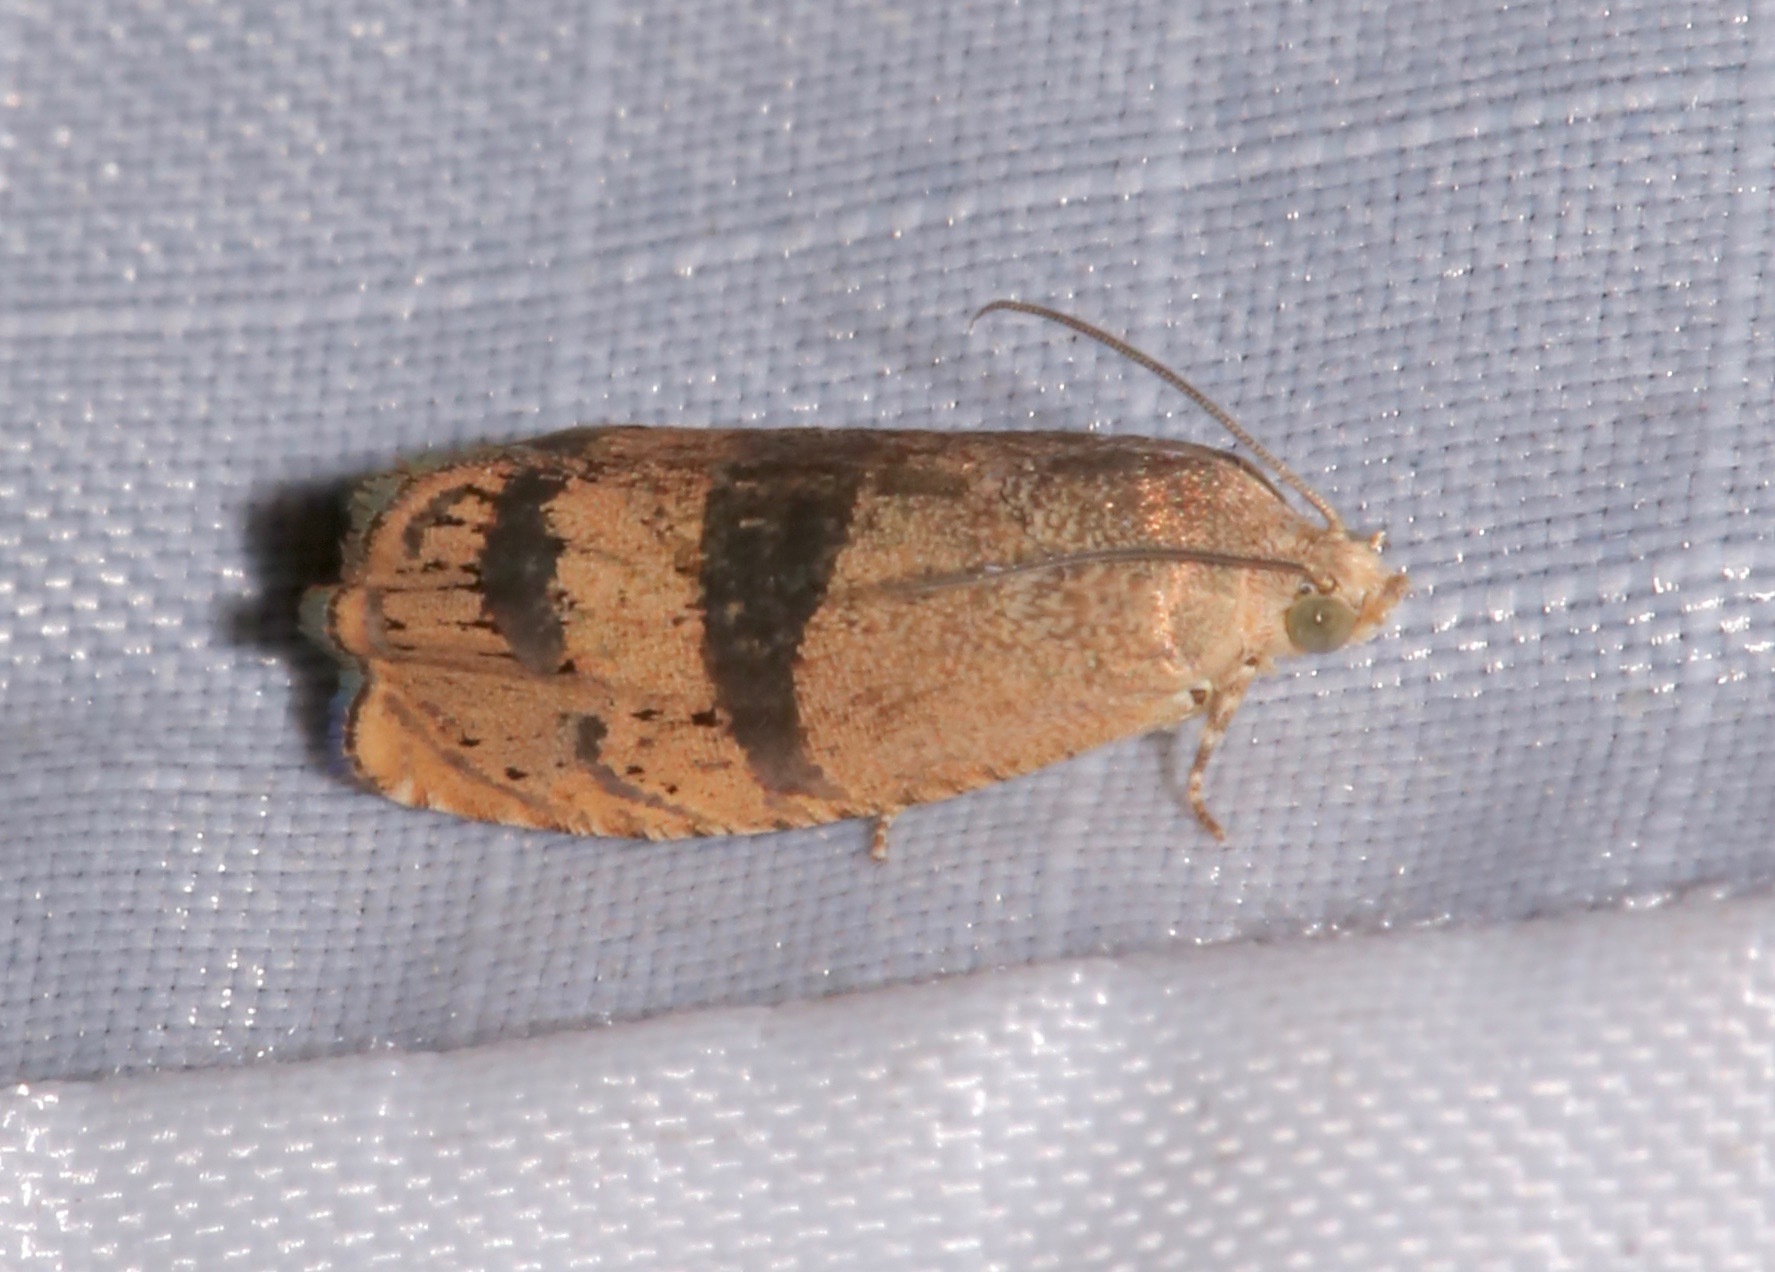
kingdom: Animalia
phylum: Arthropoda
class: Insecta
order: Lepidoptera
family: Tortricidae
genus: Cydia
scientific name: Cydia latiferreana
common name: Filbertworm moth
